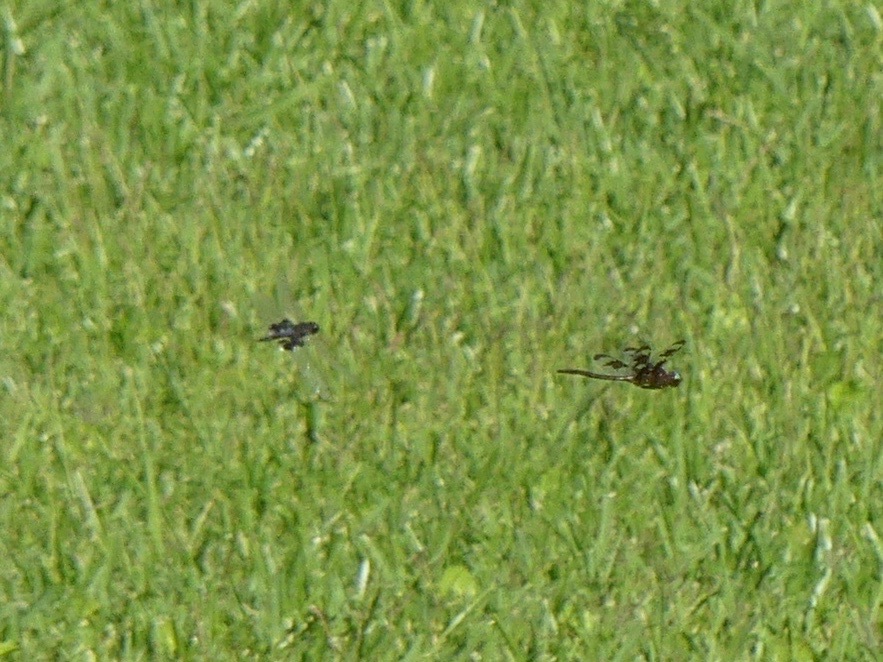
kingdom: Animalia
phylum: Arthropoda
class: Insecta
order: Odonata
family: Corduliidae
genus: Epitheca
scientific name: Epitheca princeps
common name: Prince baskettail
